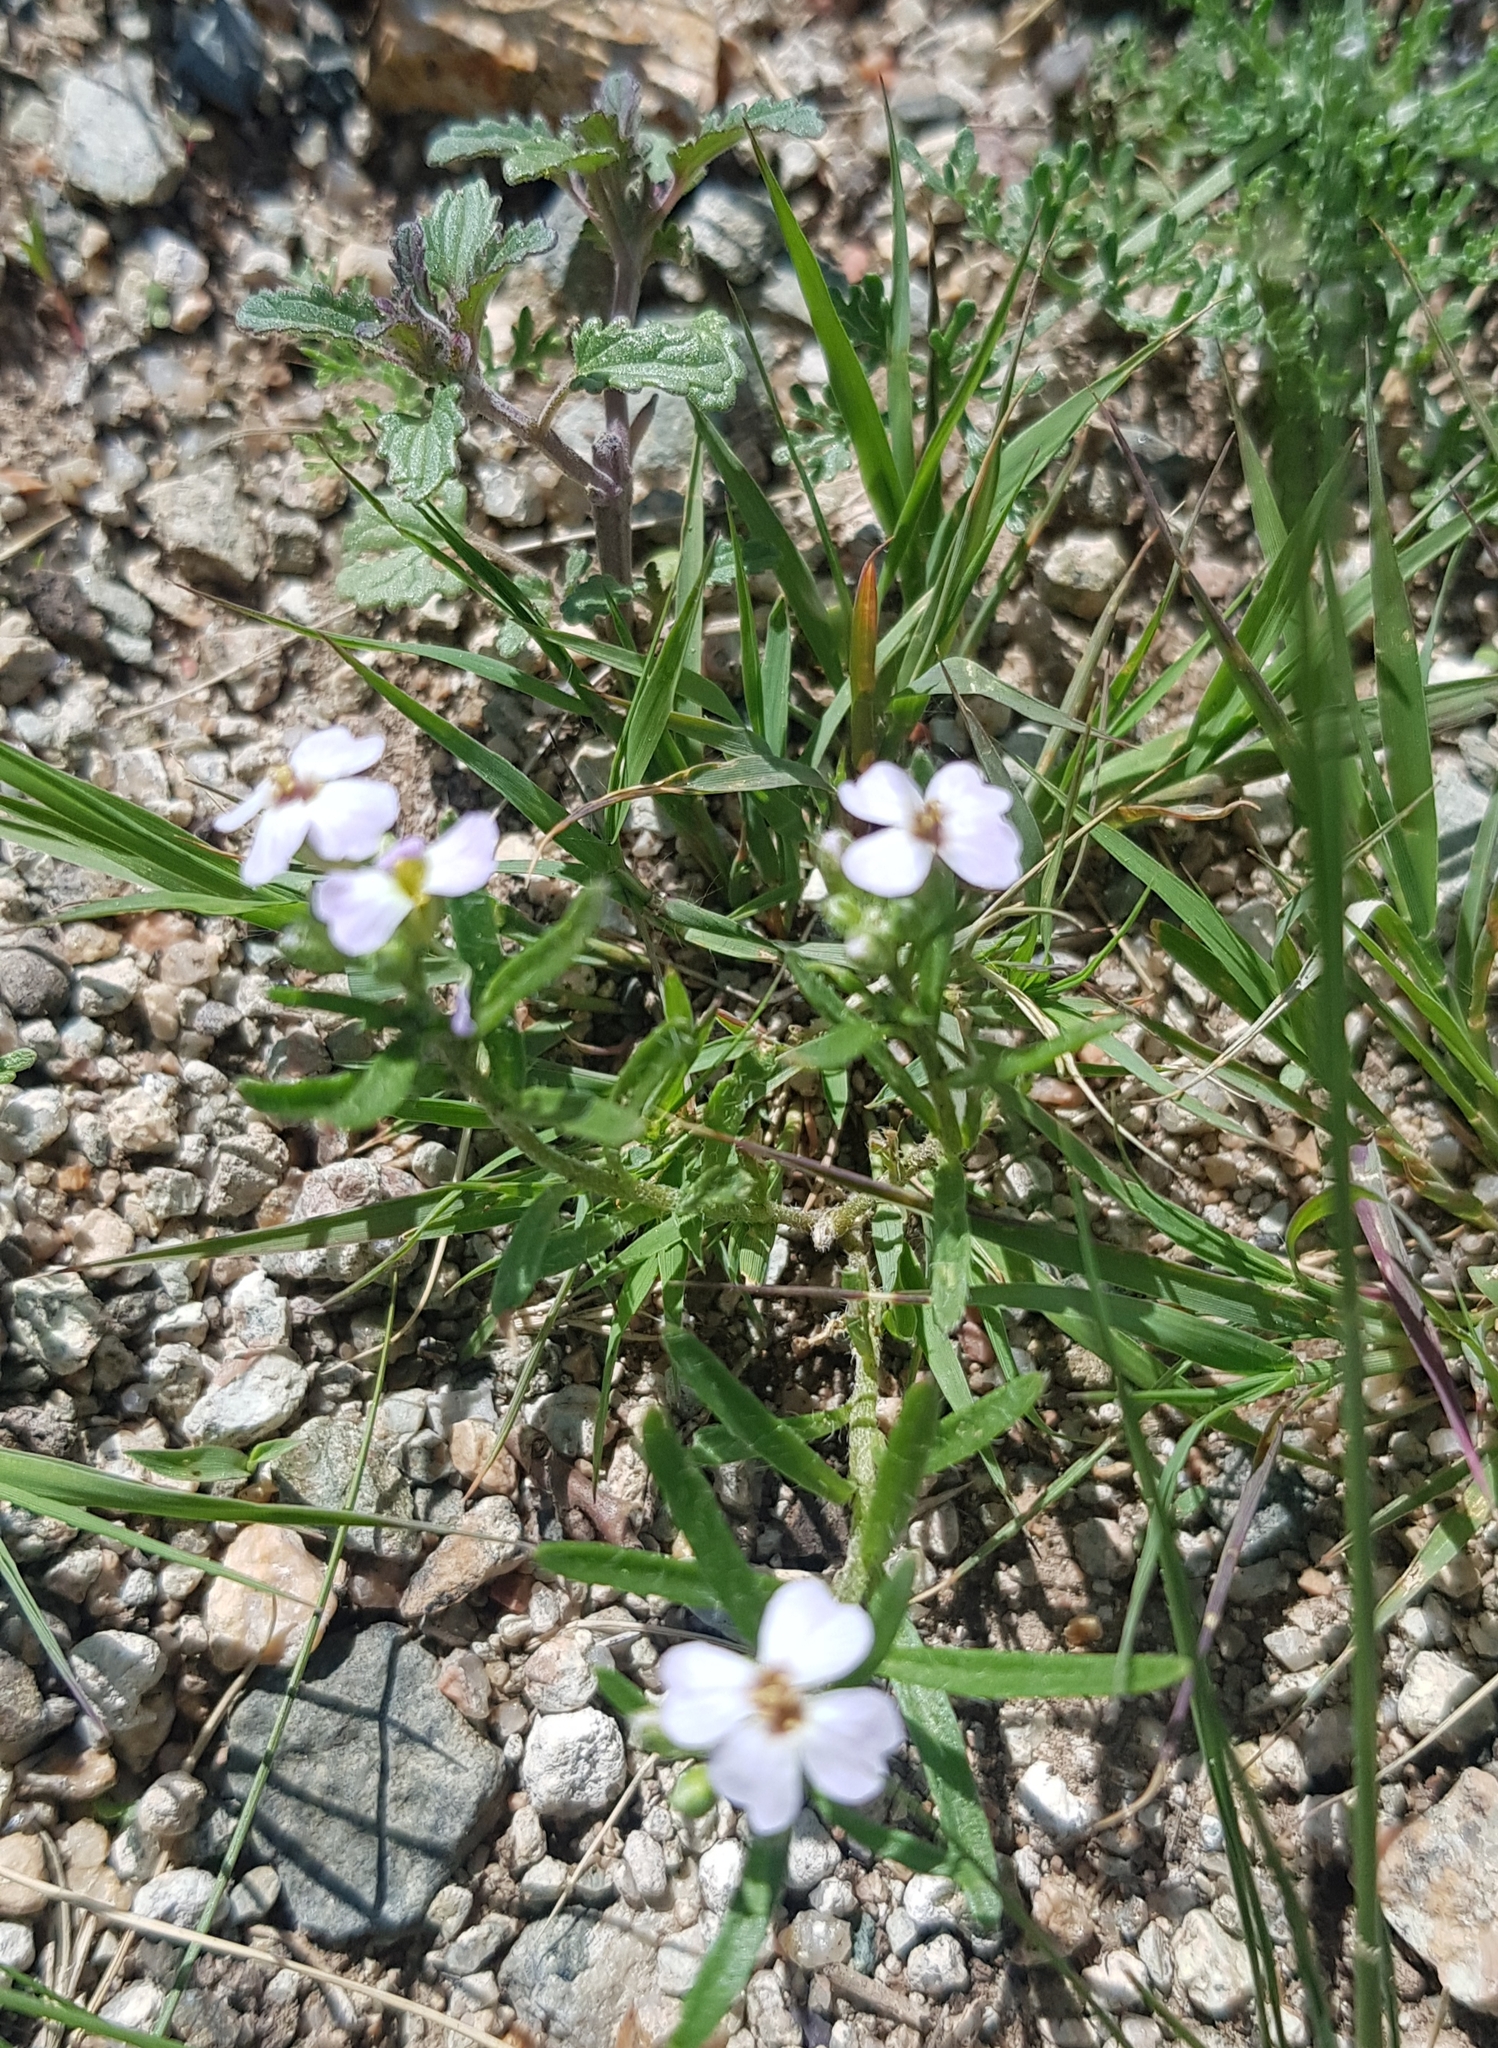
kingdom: Plantae
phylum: Tracheophyta
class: Magnoliopsida
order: Brassicales
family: Brassicaceae
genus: Dontostemon
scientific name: Dontostemon integrifolius
